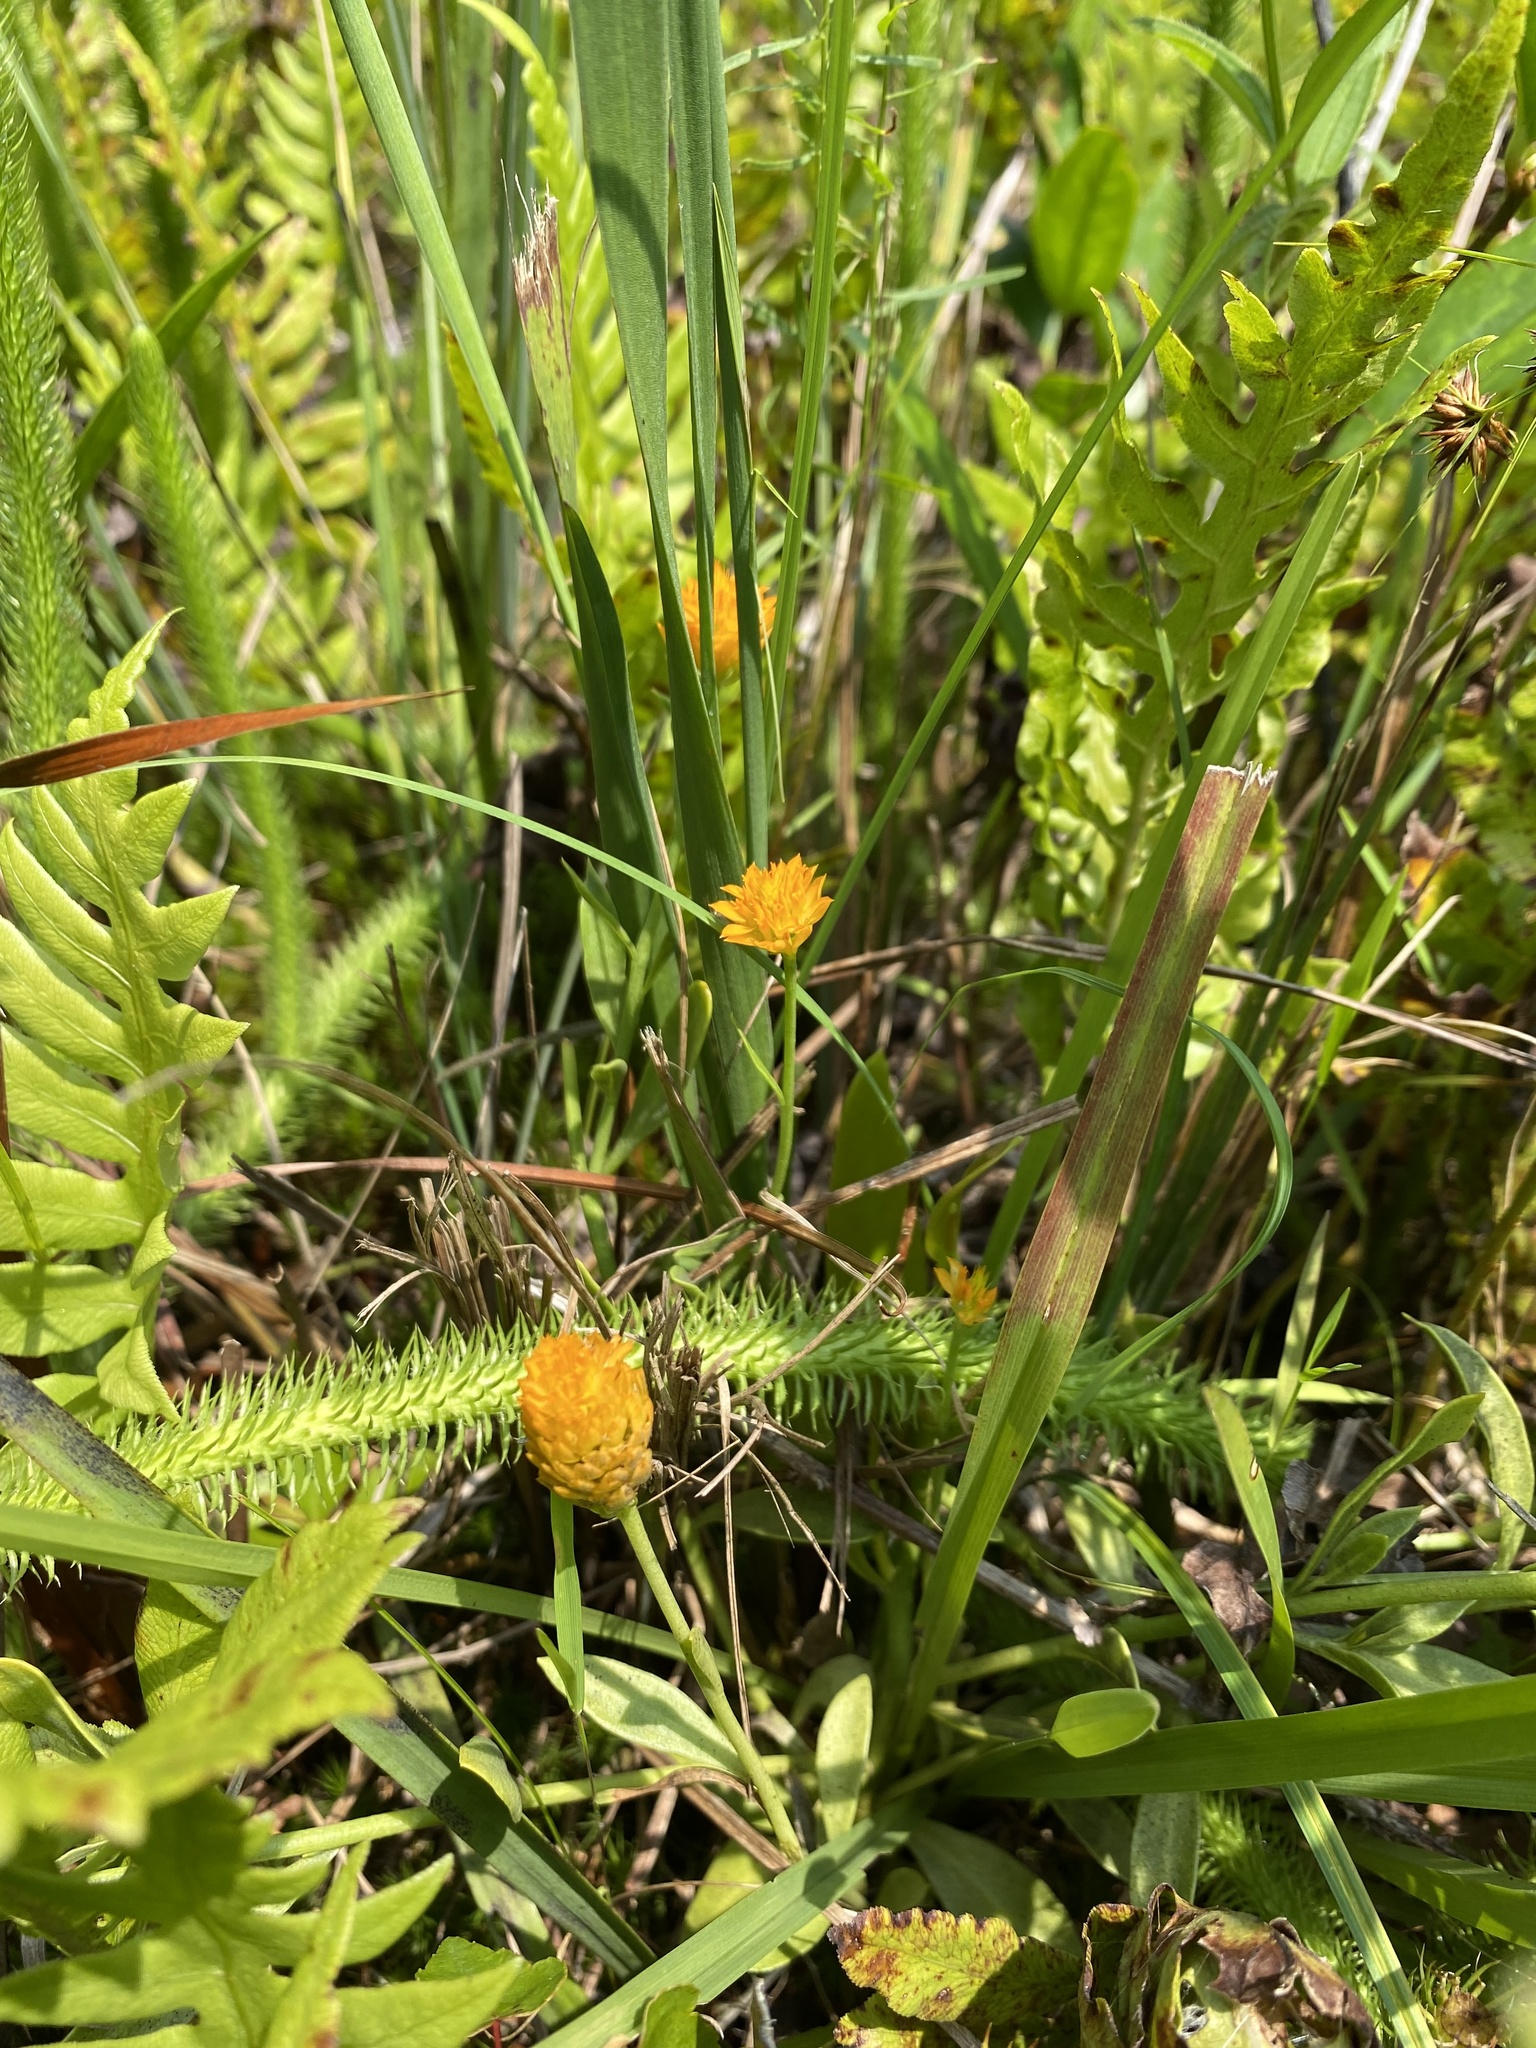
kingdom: Plantae
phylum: Tracheophyta
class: Magnoliopsida
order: Fabales
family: Polygalaceae
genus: Polygala
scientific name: Polygala lutea
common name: Orange milkwort
